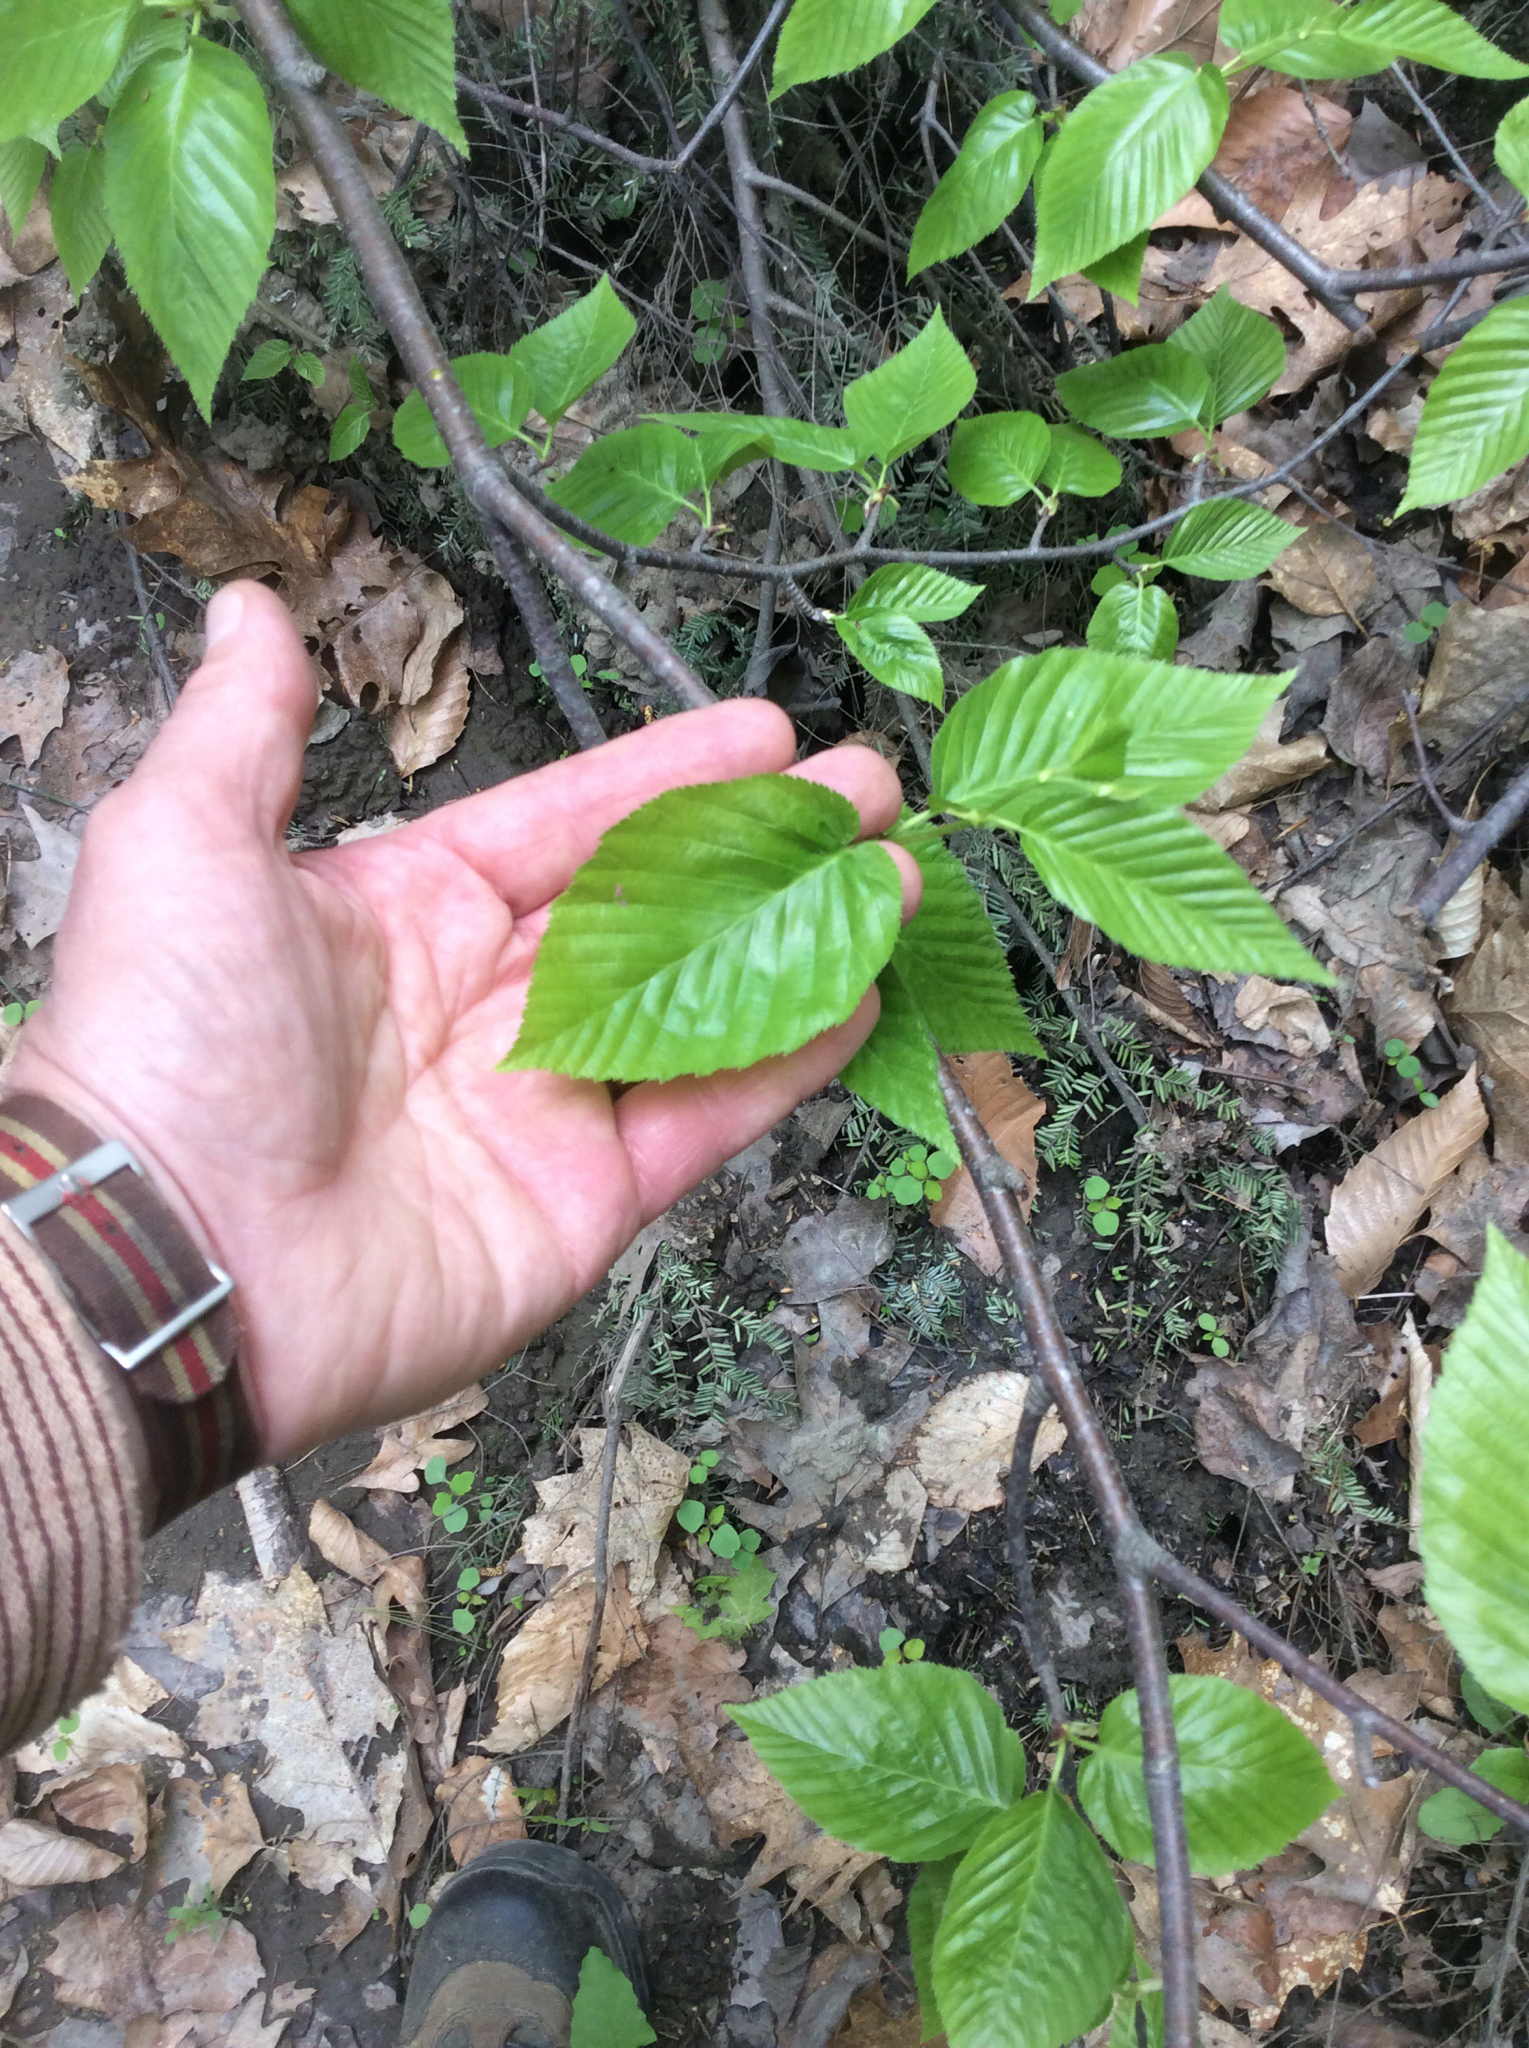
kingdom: Plantae
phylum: Tracheophyta
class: Magnoliopsida
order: Fagales
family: Betulaceae
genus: Betula
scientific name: Betula lenta
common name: Black birch
